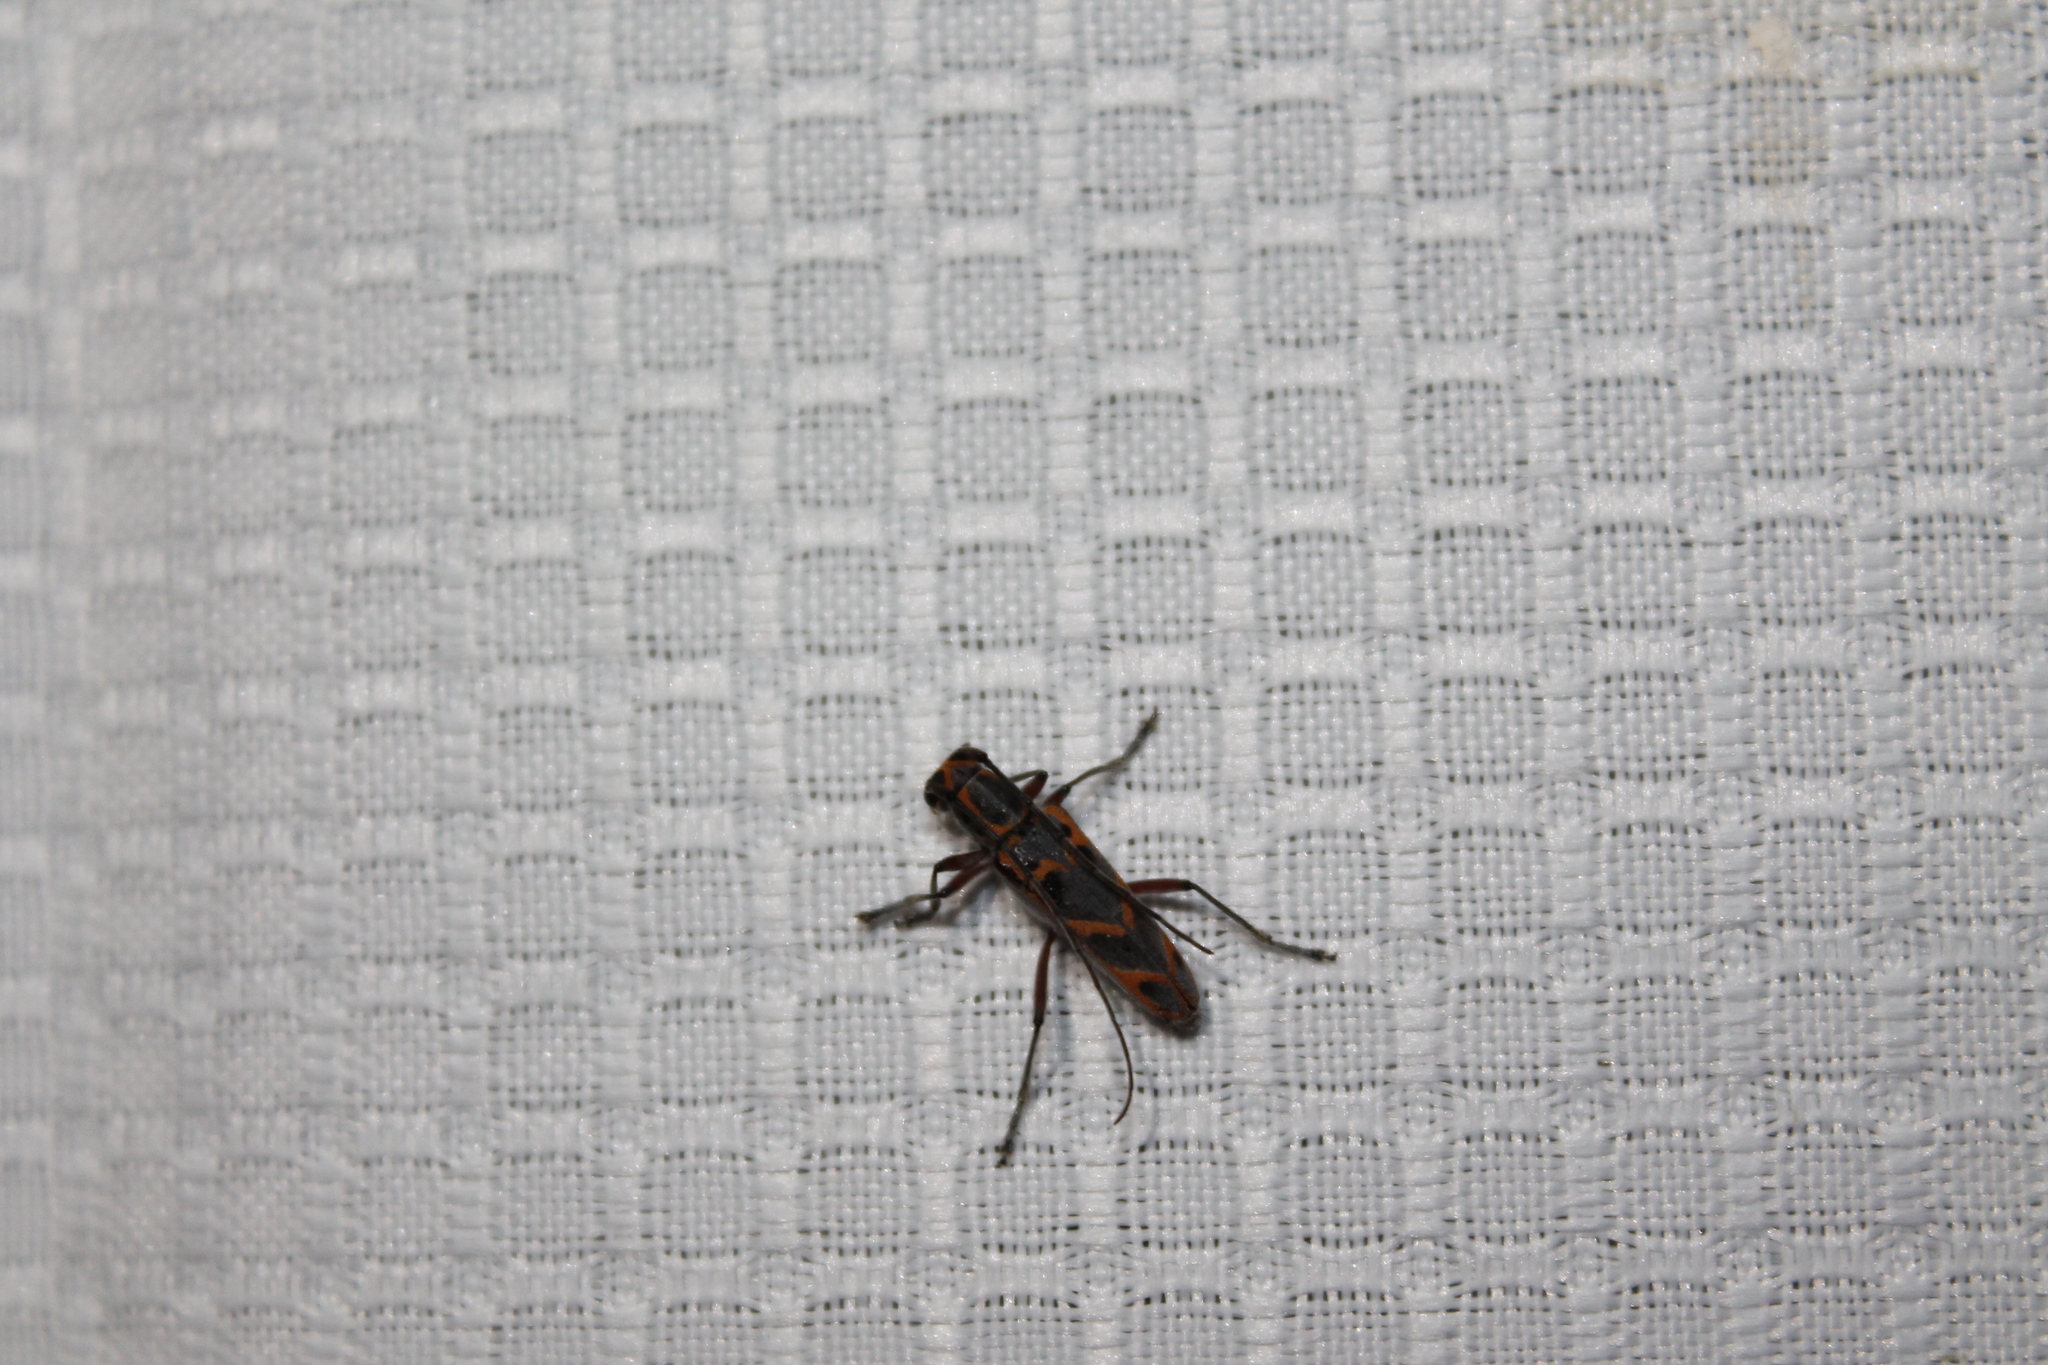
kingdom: Animalia
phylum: Arthropoda
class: Insecta
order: Coleoptera
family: Cerambycidae
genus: Saperda
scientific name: Saperda tridentata
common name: Elm borer
